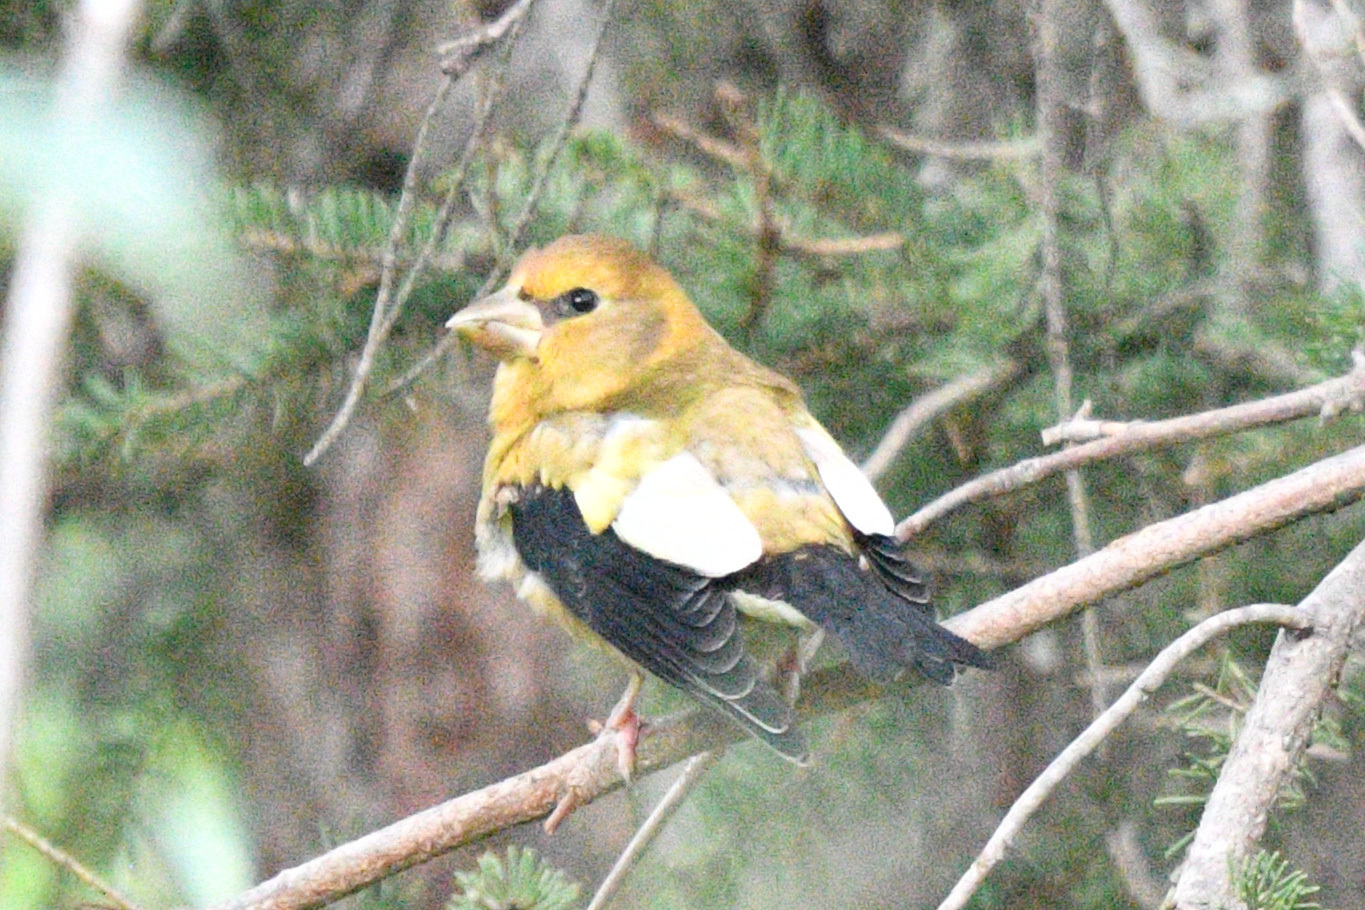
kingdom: Animalia
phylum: Chordata
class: Aves
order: Passeriformes
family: Fringillidae
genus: Hesperiphona
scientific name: Hesperiphona vespertina
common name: Evening grosbeak
